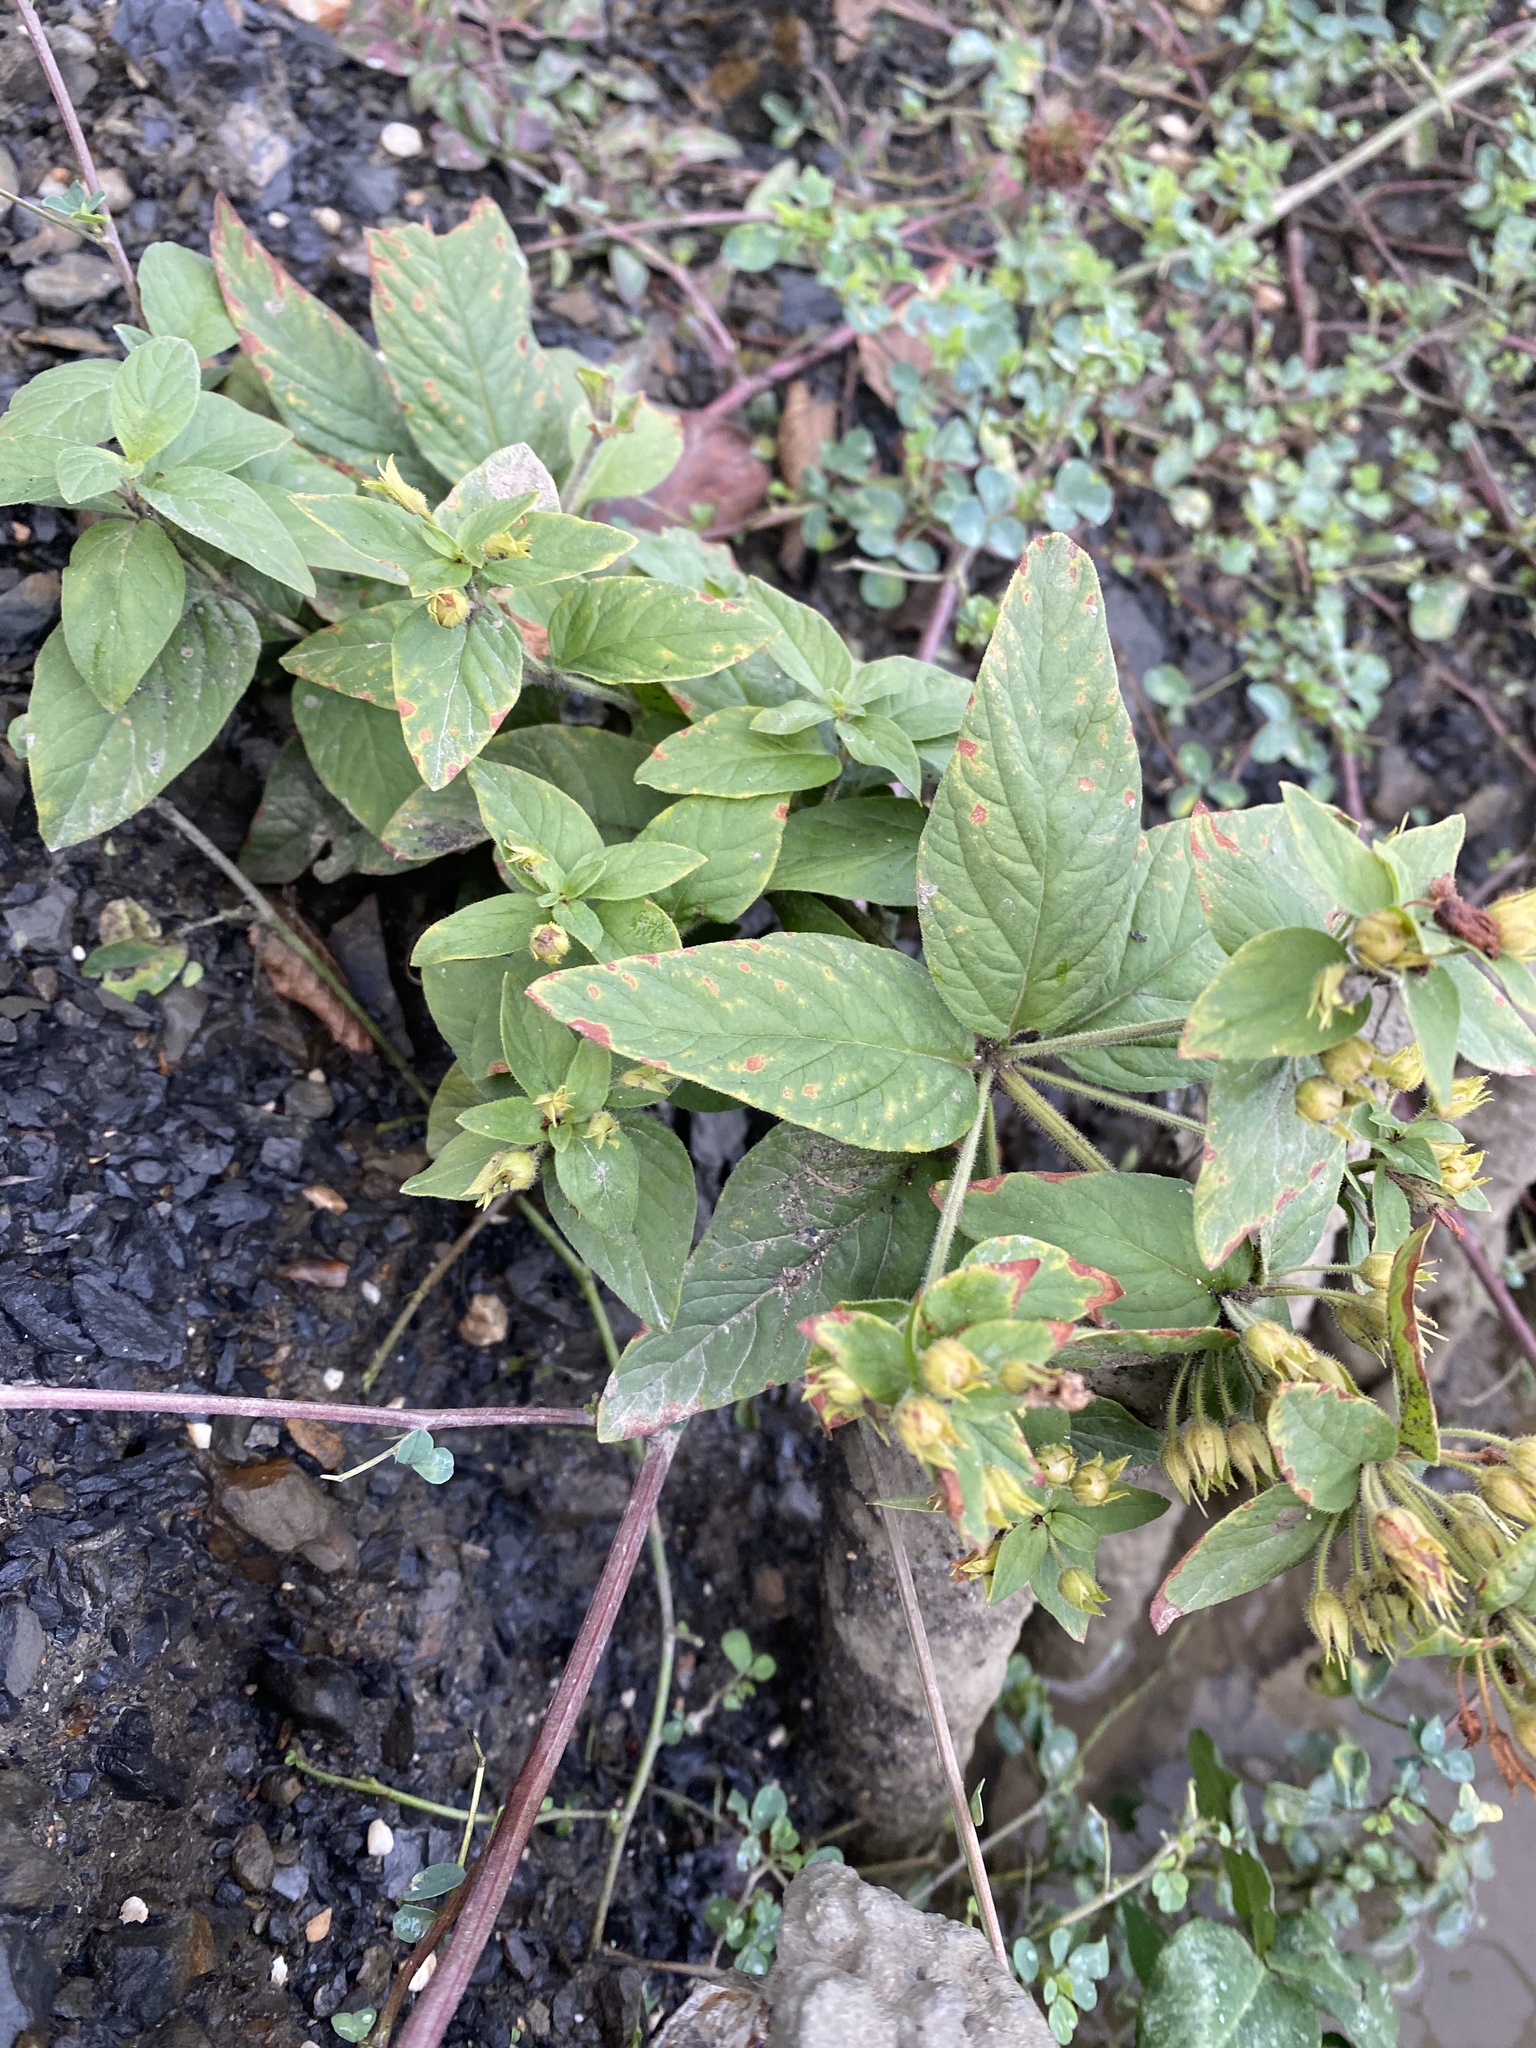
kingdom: Plantae
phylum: Tracheophyta
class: Magnoliopsida
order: Ericales
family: Primulaceae
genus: Lysimachia
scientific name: Lysimachia verticillaris
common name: Yellow loosestrife
